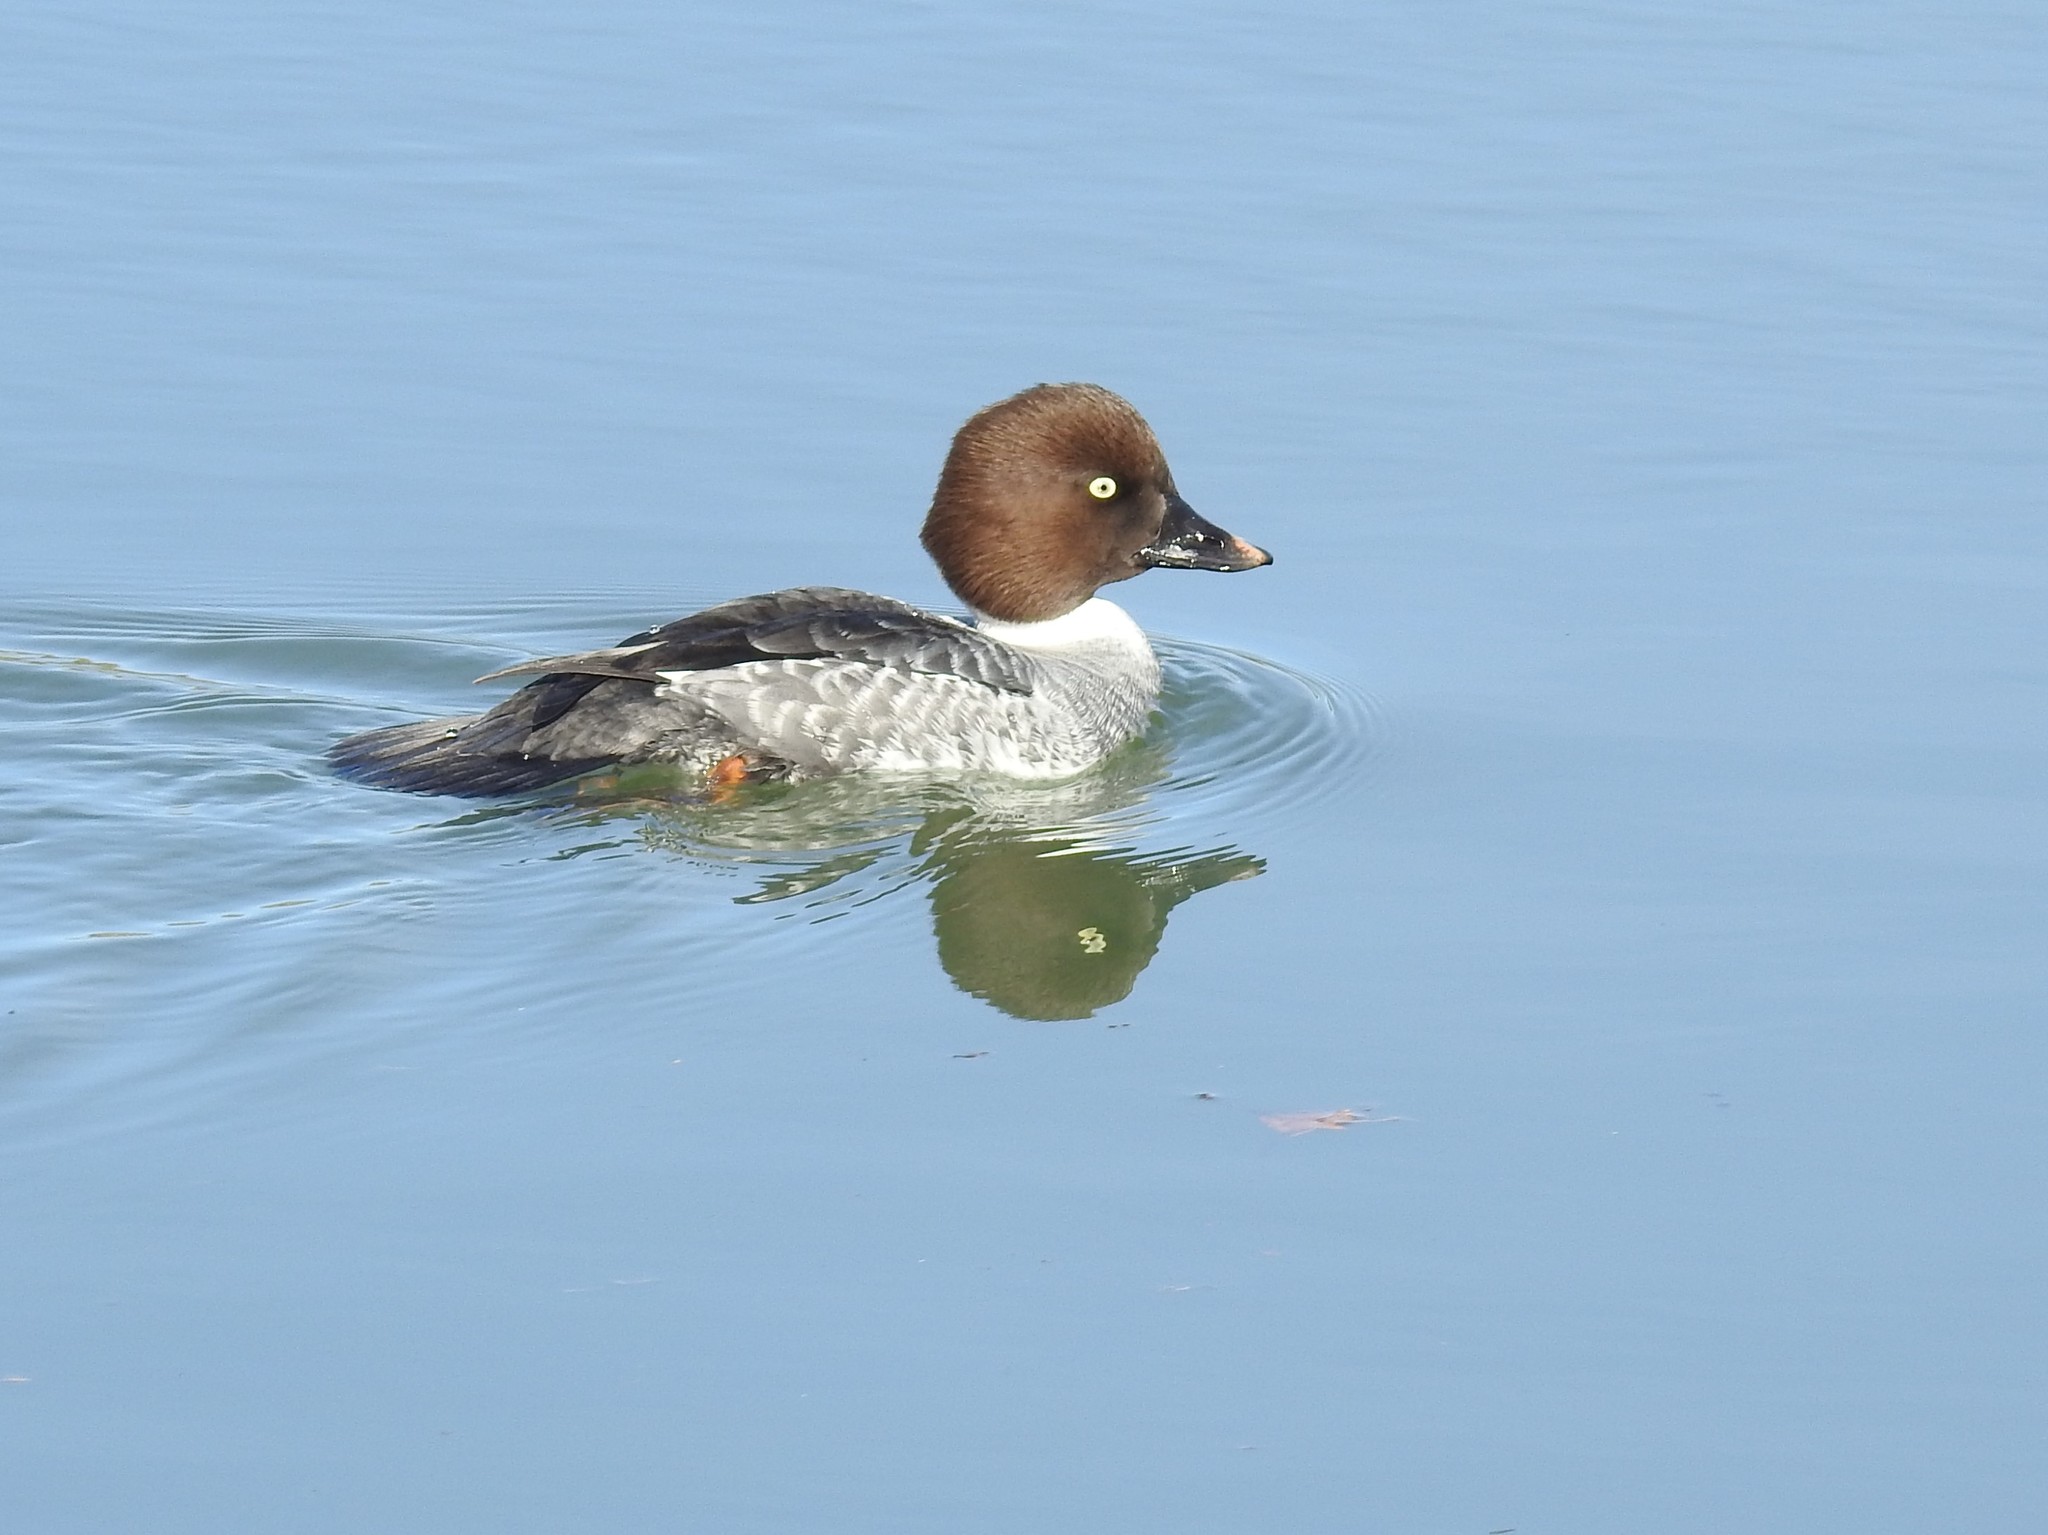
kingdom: Animalia
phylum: Chordata
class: Aves
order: Anseriformes
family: Anatidae
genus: Bucephala
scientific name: Bucephala clangula
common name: Common goldeneye
